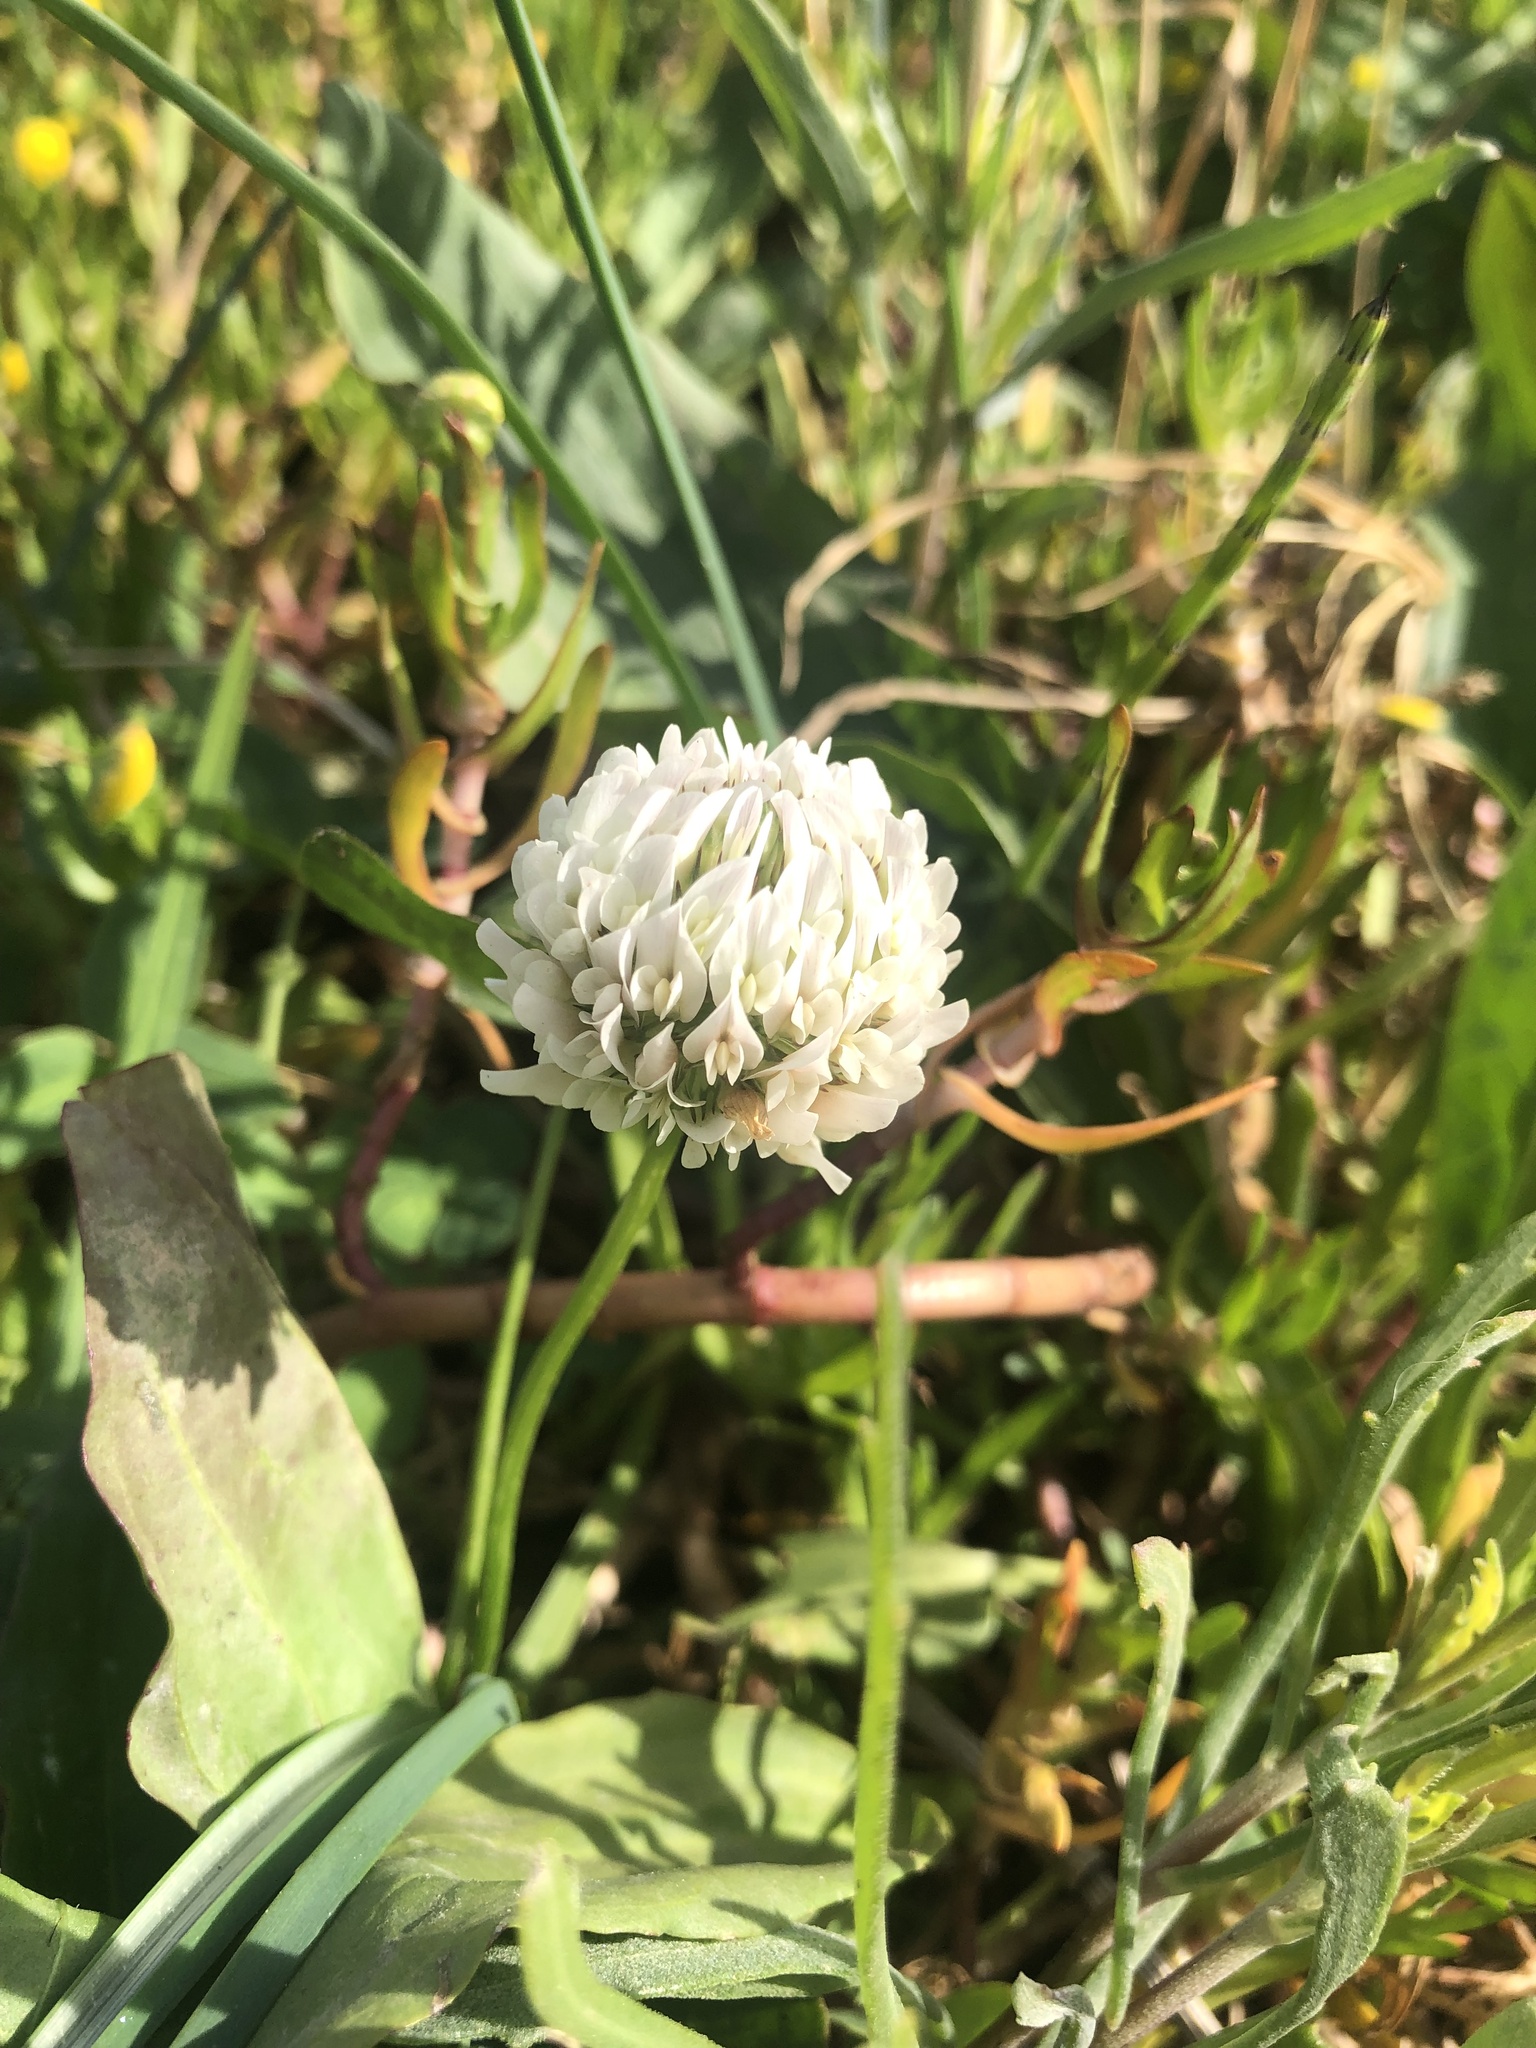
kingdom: Plantae
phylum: Tracheophyta
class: Magnoliopsida
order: Fabales
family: Fabaceae
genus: Trifolium
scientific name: Trifolium repens
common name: White clover
